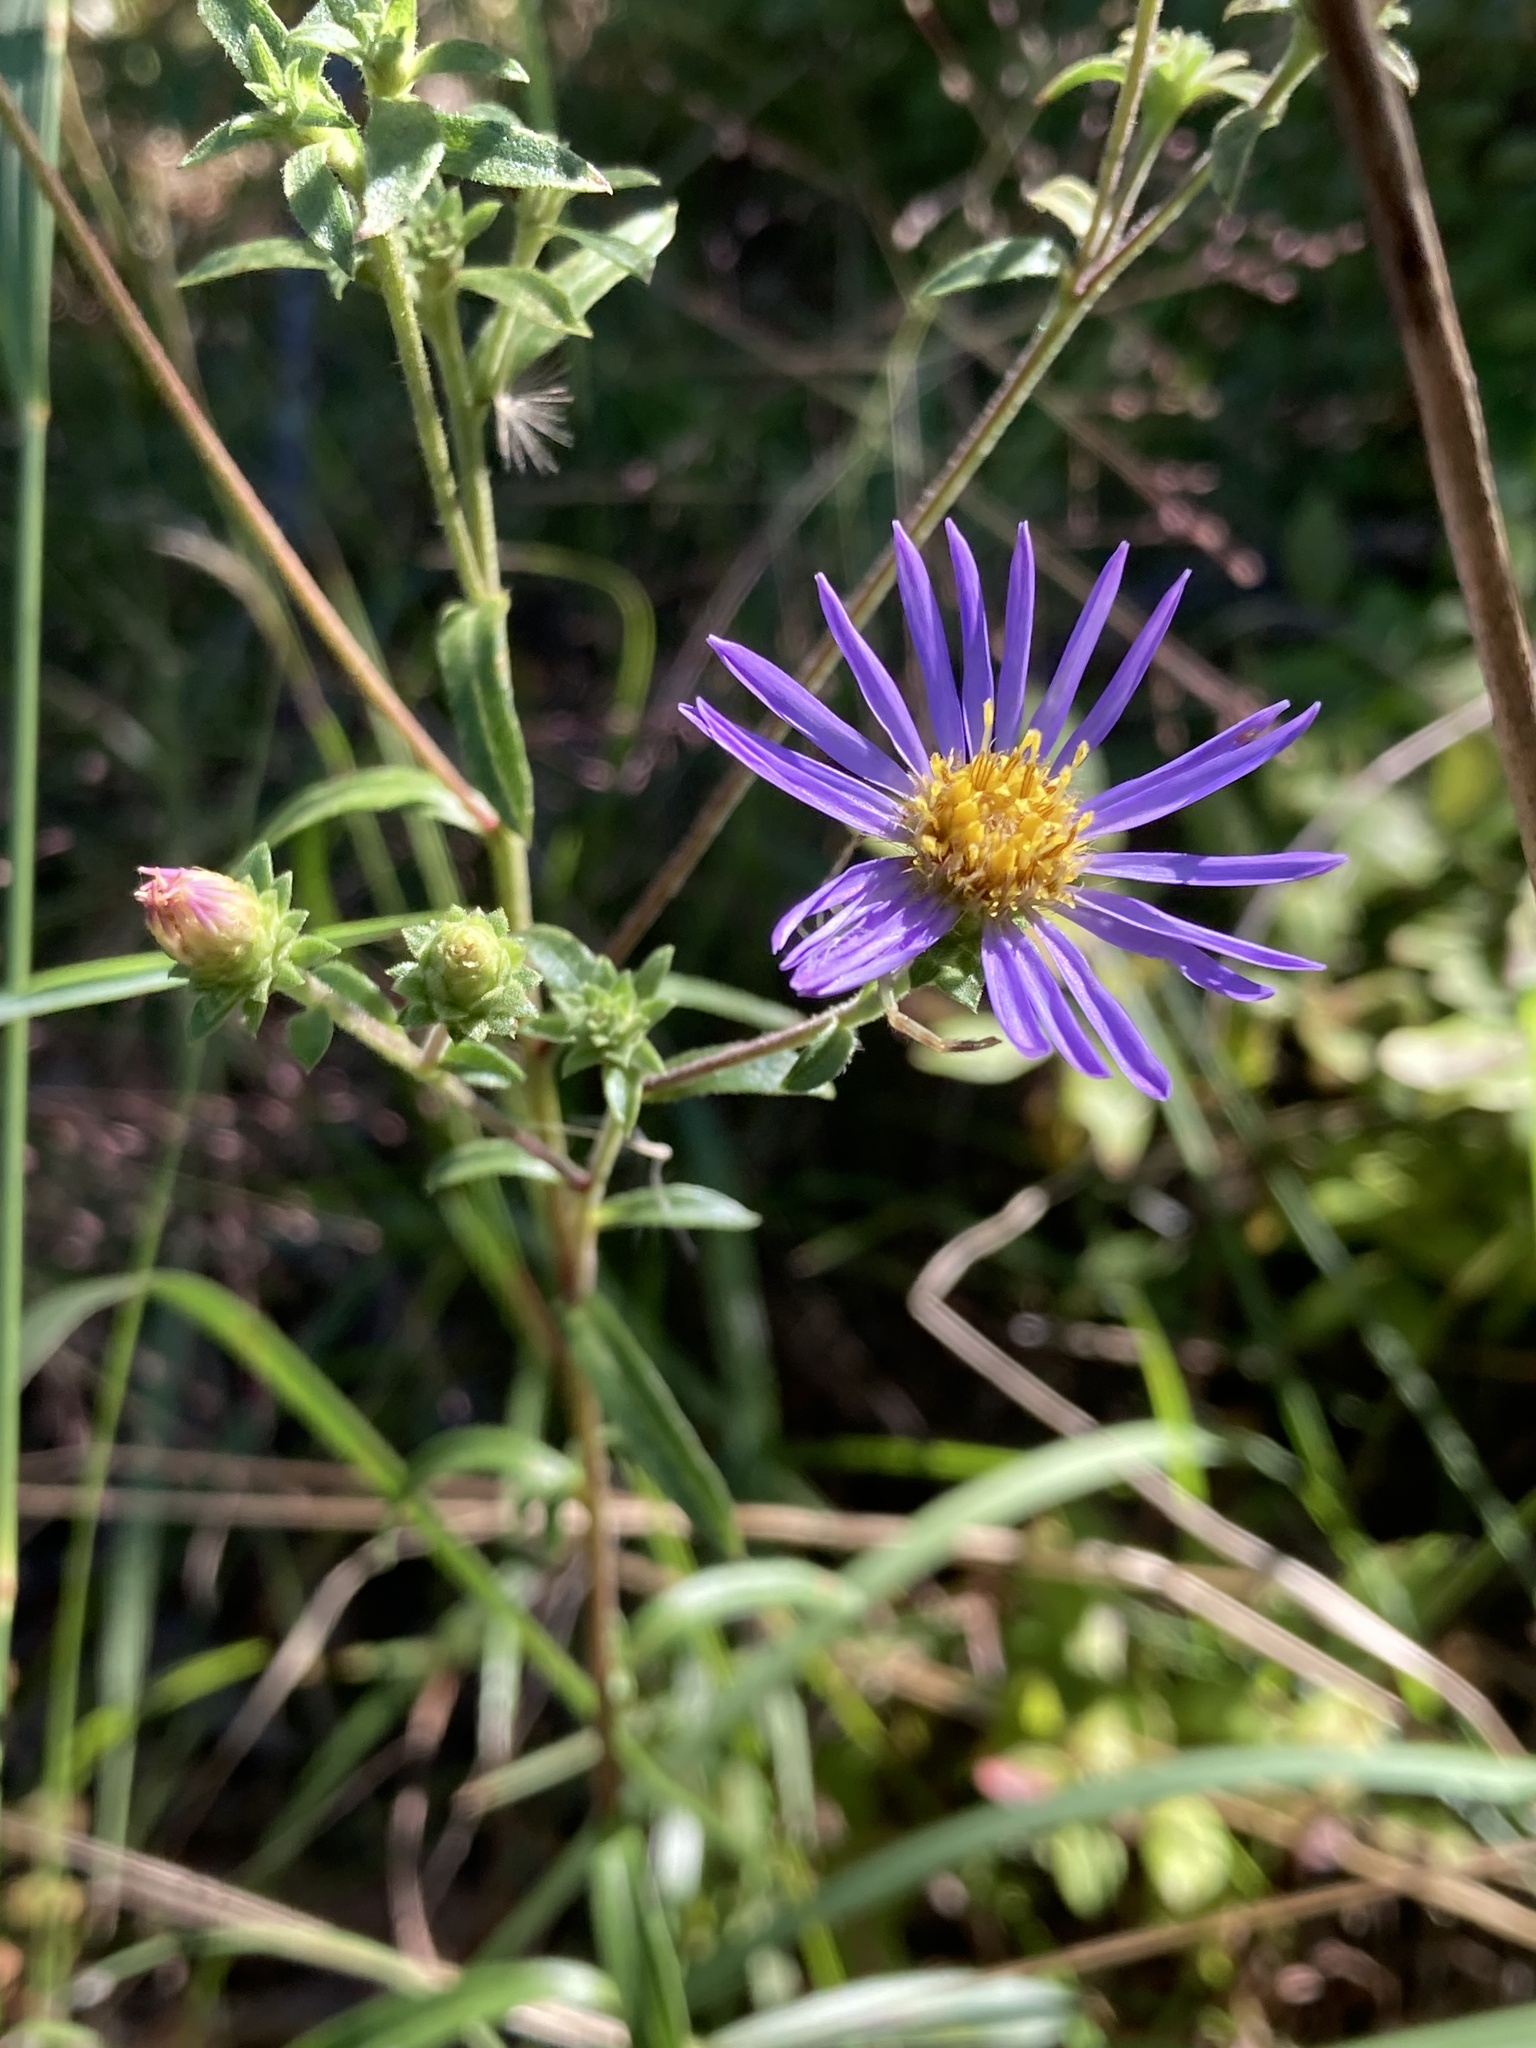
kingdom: Plantae
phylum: Tracheophyta
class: Magnoliopsida
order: Asterales
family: Asteraceae
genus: Eurybia
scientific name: Eurybia spectabilis
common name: Low showy aster
